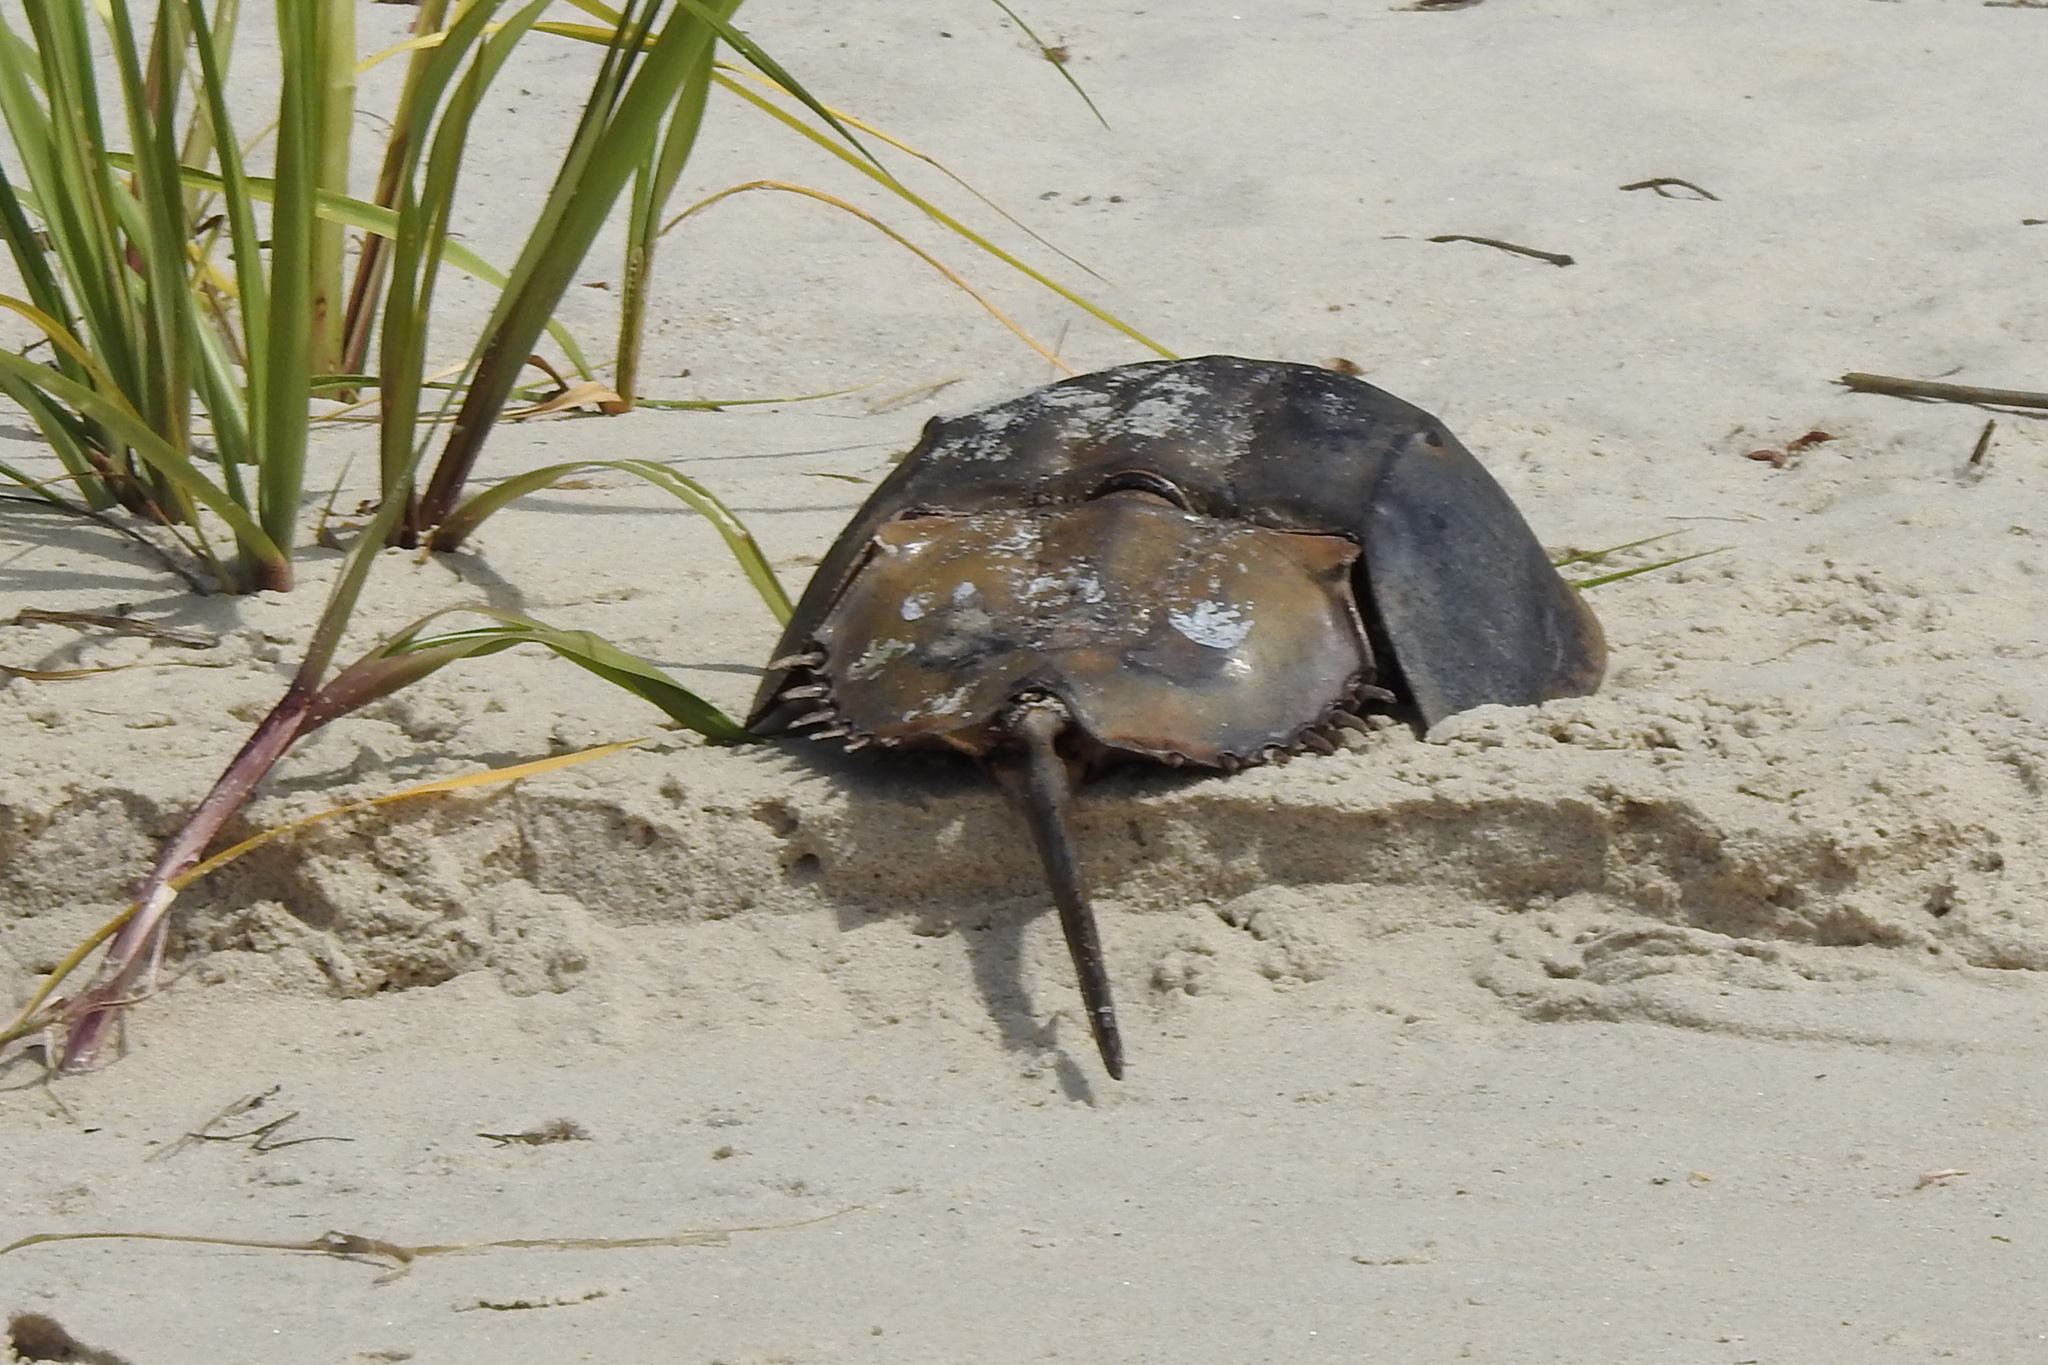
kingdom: Animalia
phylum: Arthropoda
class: Merostomata
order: Xiphosurida
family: Limulidae
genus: Limulus
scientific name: Limulus polyphemus
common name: Horseshoe crab
